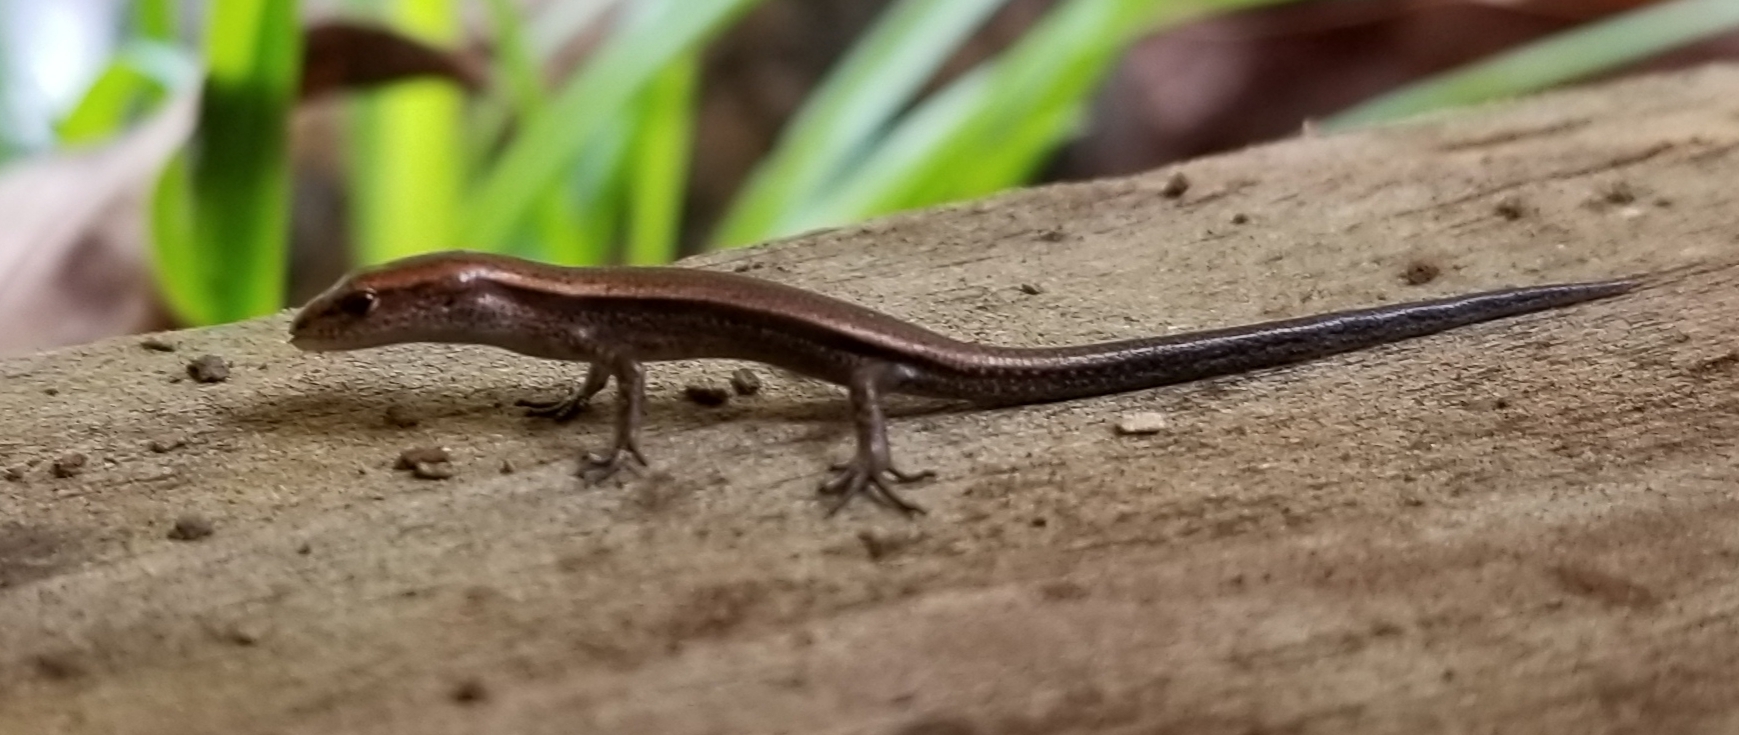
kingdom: Animalia
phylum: Chordata
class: Squamata
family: Scincidae
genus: Lampropholis
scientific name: Lampropholis delicata
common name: Plague skink
